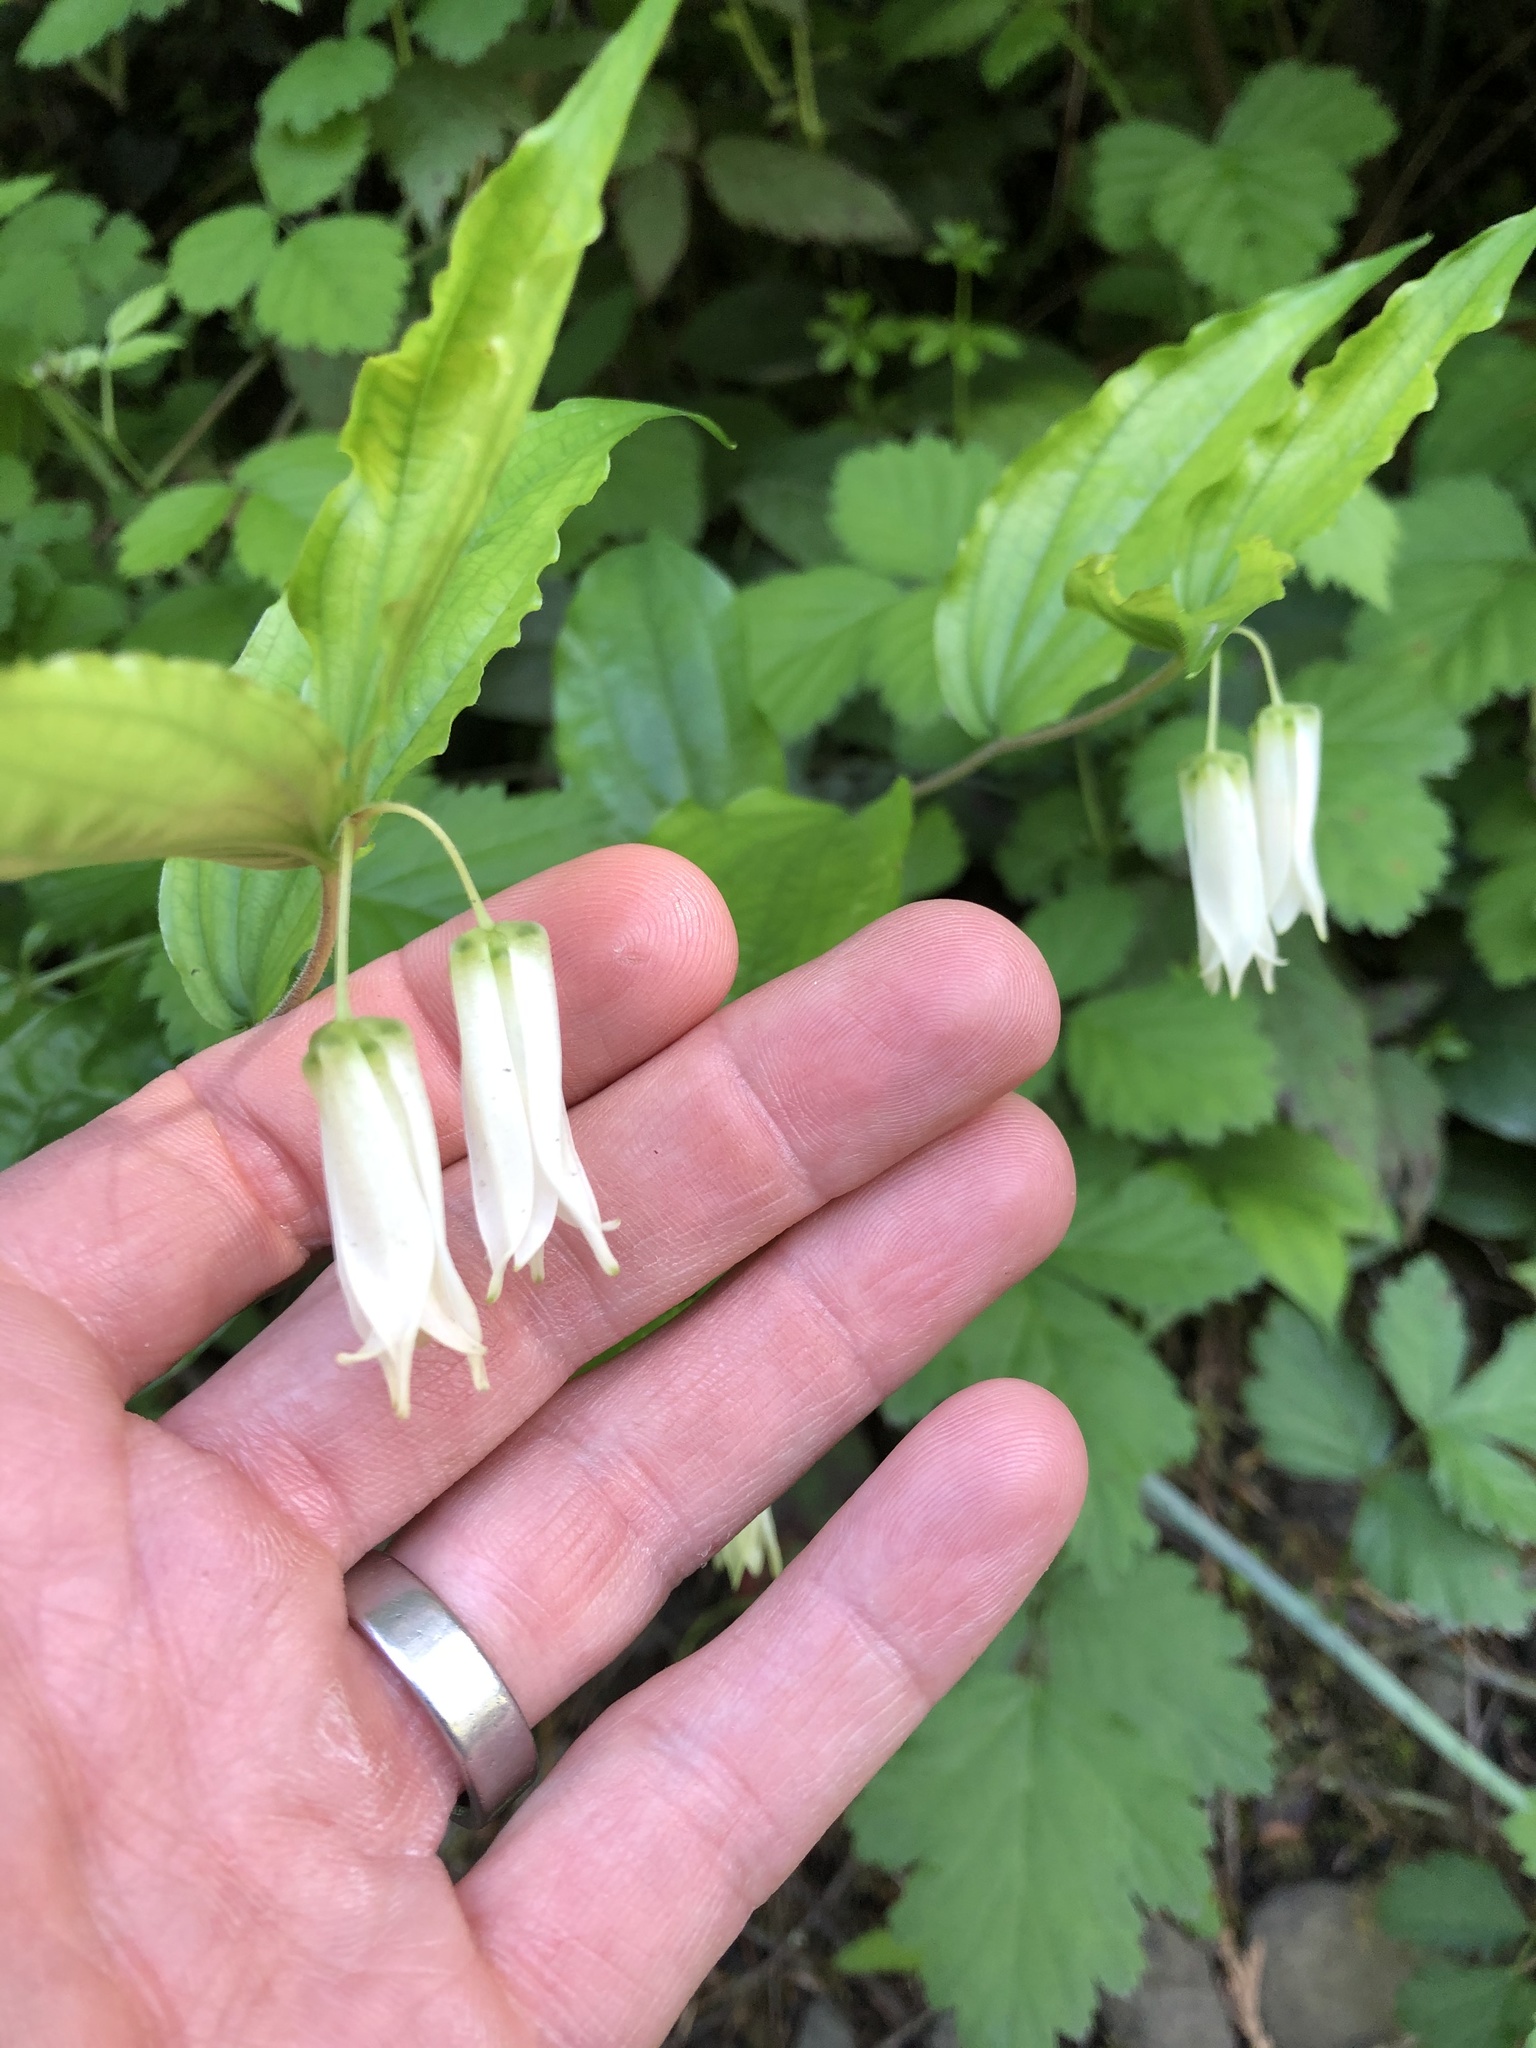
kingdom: Plantae
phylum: Tracheophyta
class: Liliopsida
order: Liliales
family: Liliaceae
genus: Prosartes
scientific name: Prosartes smithii
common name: Fairy-lantern
